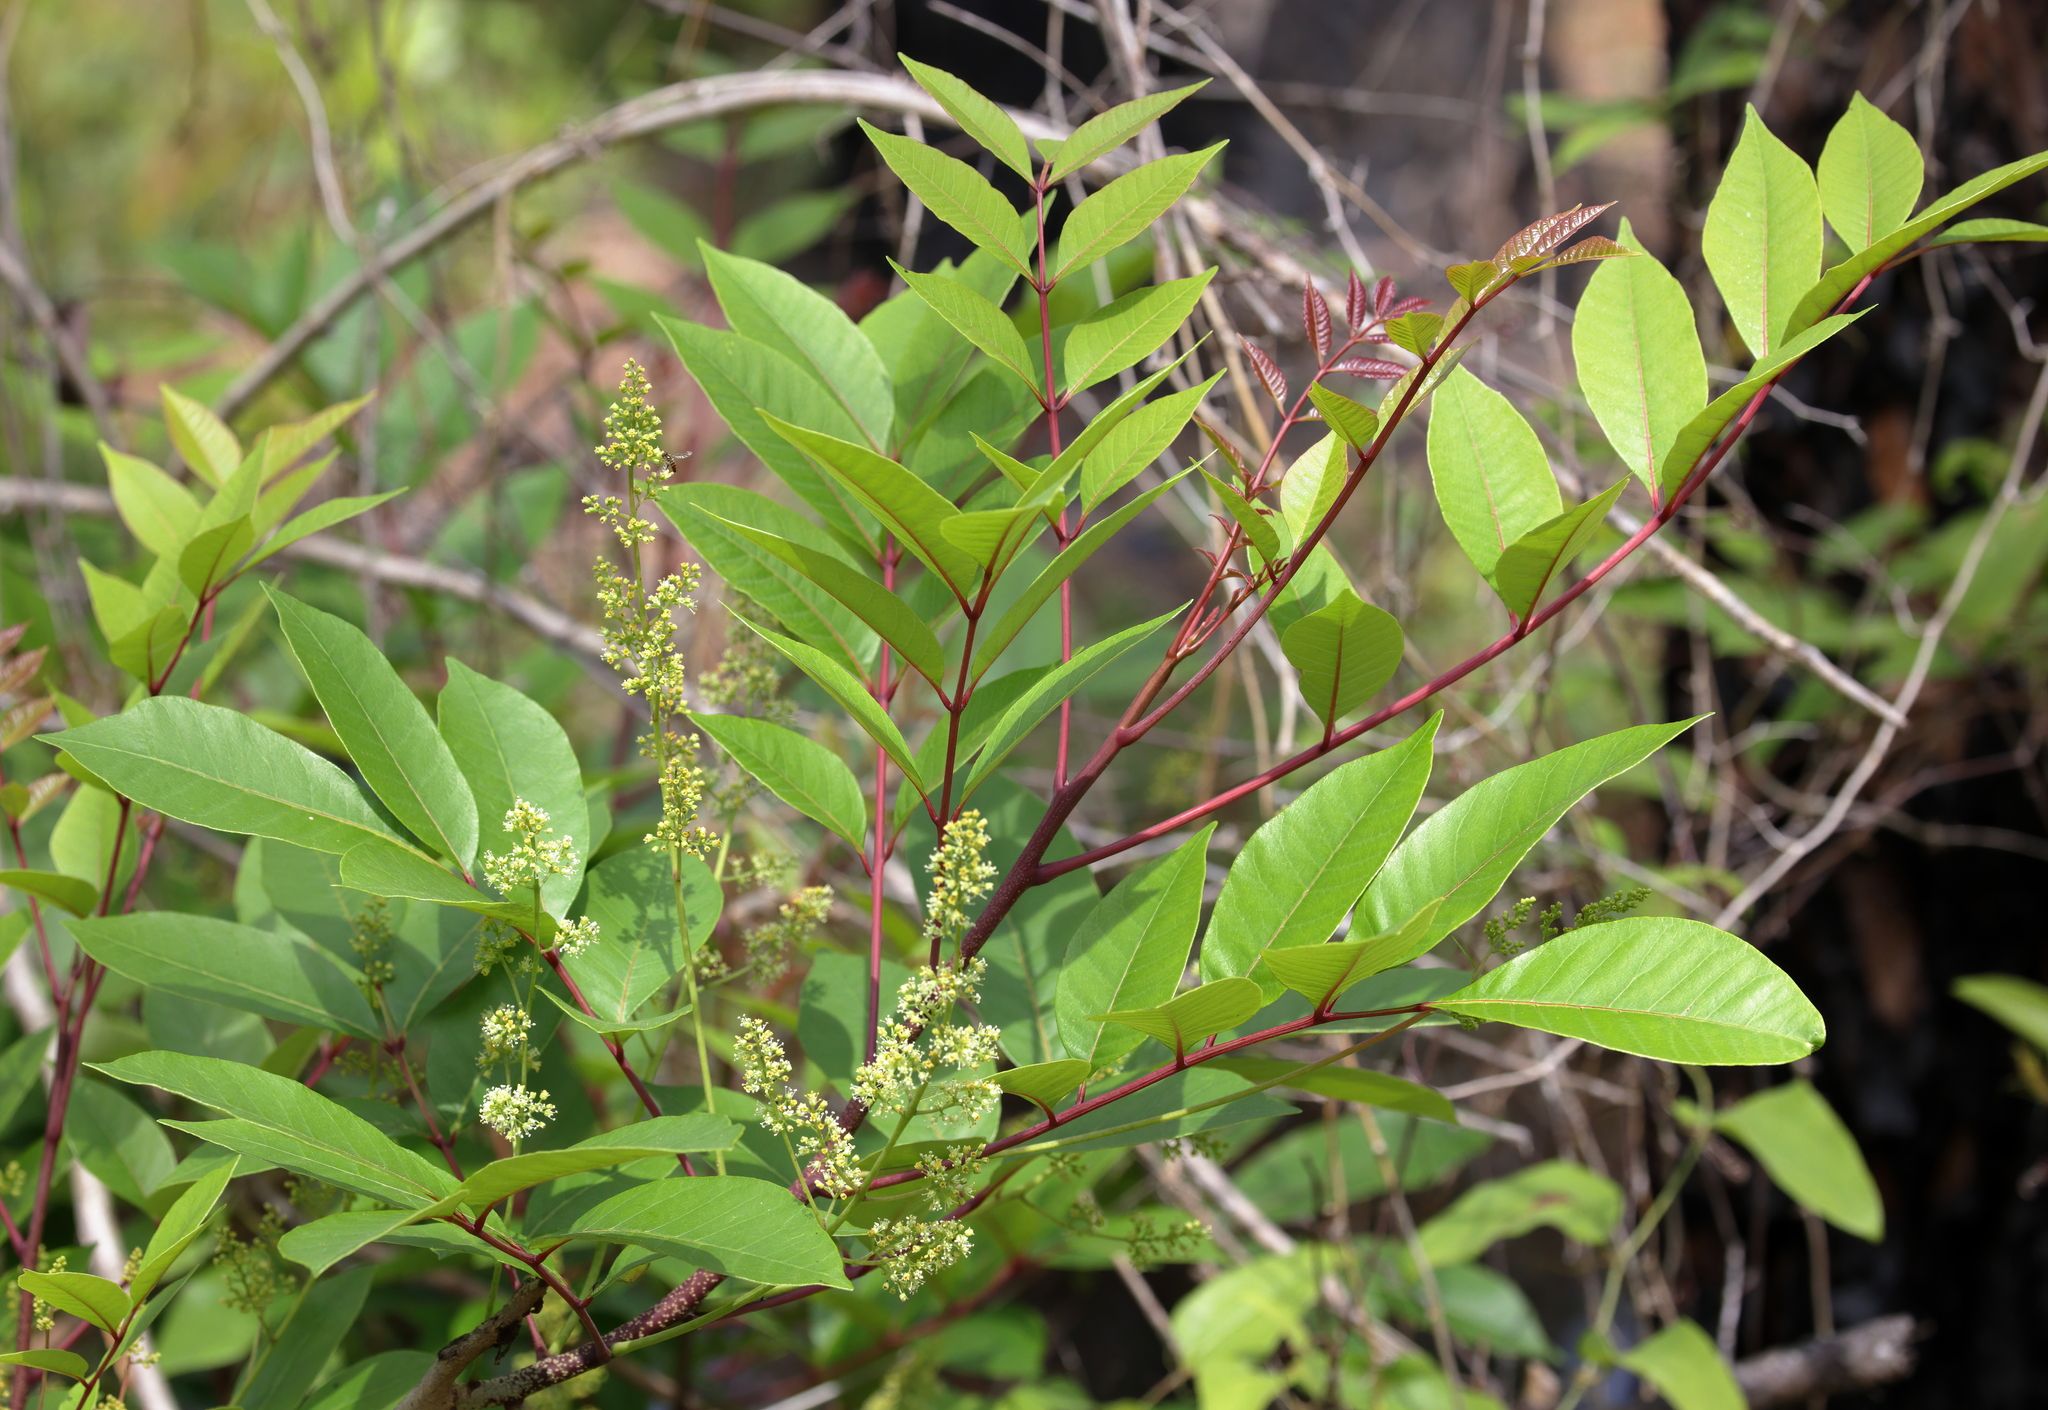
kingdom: Plantae
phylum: Tracheophyta
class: Magnoliopsida
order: Sapindales
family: Anacardiaceae
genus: Toxicodendron
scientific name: Toxicodendron vernix
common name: Poison sumac
